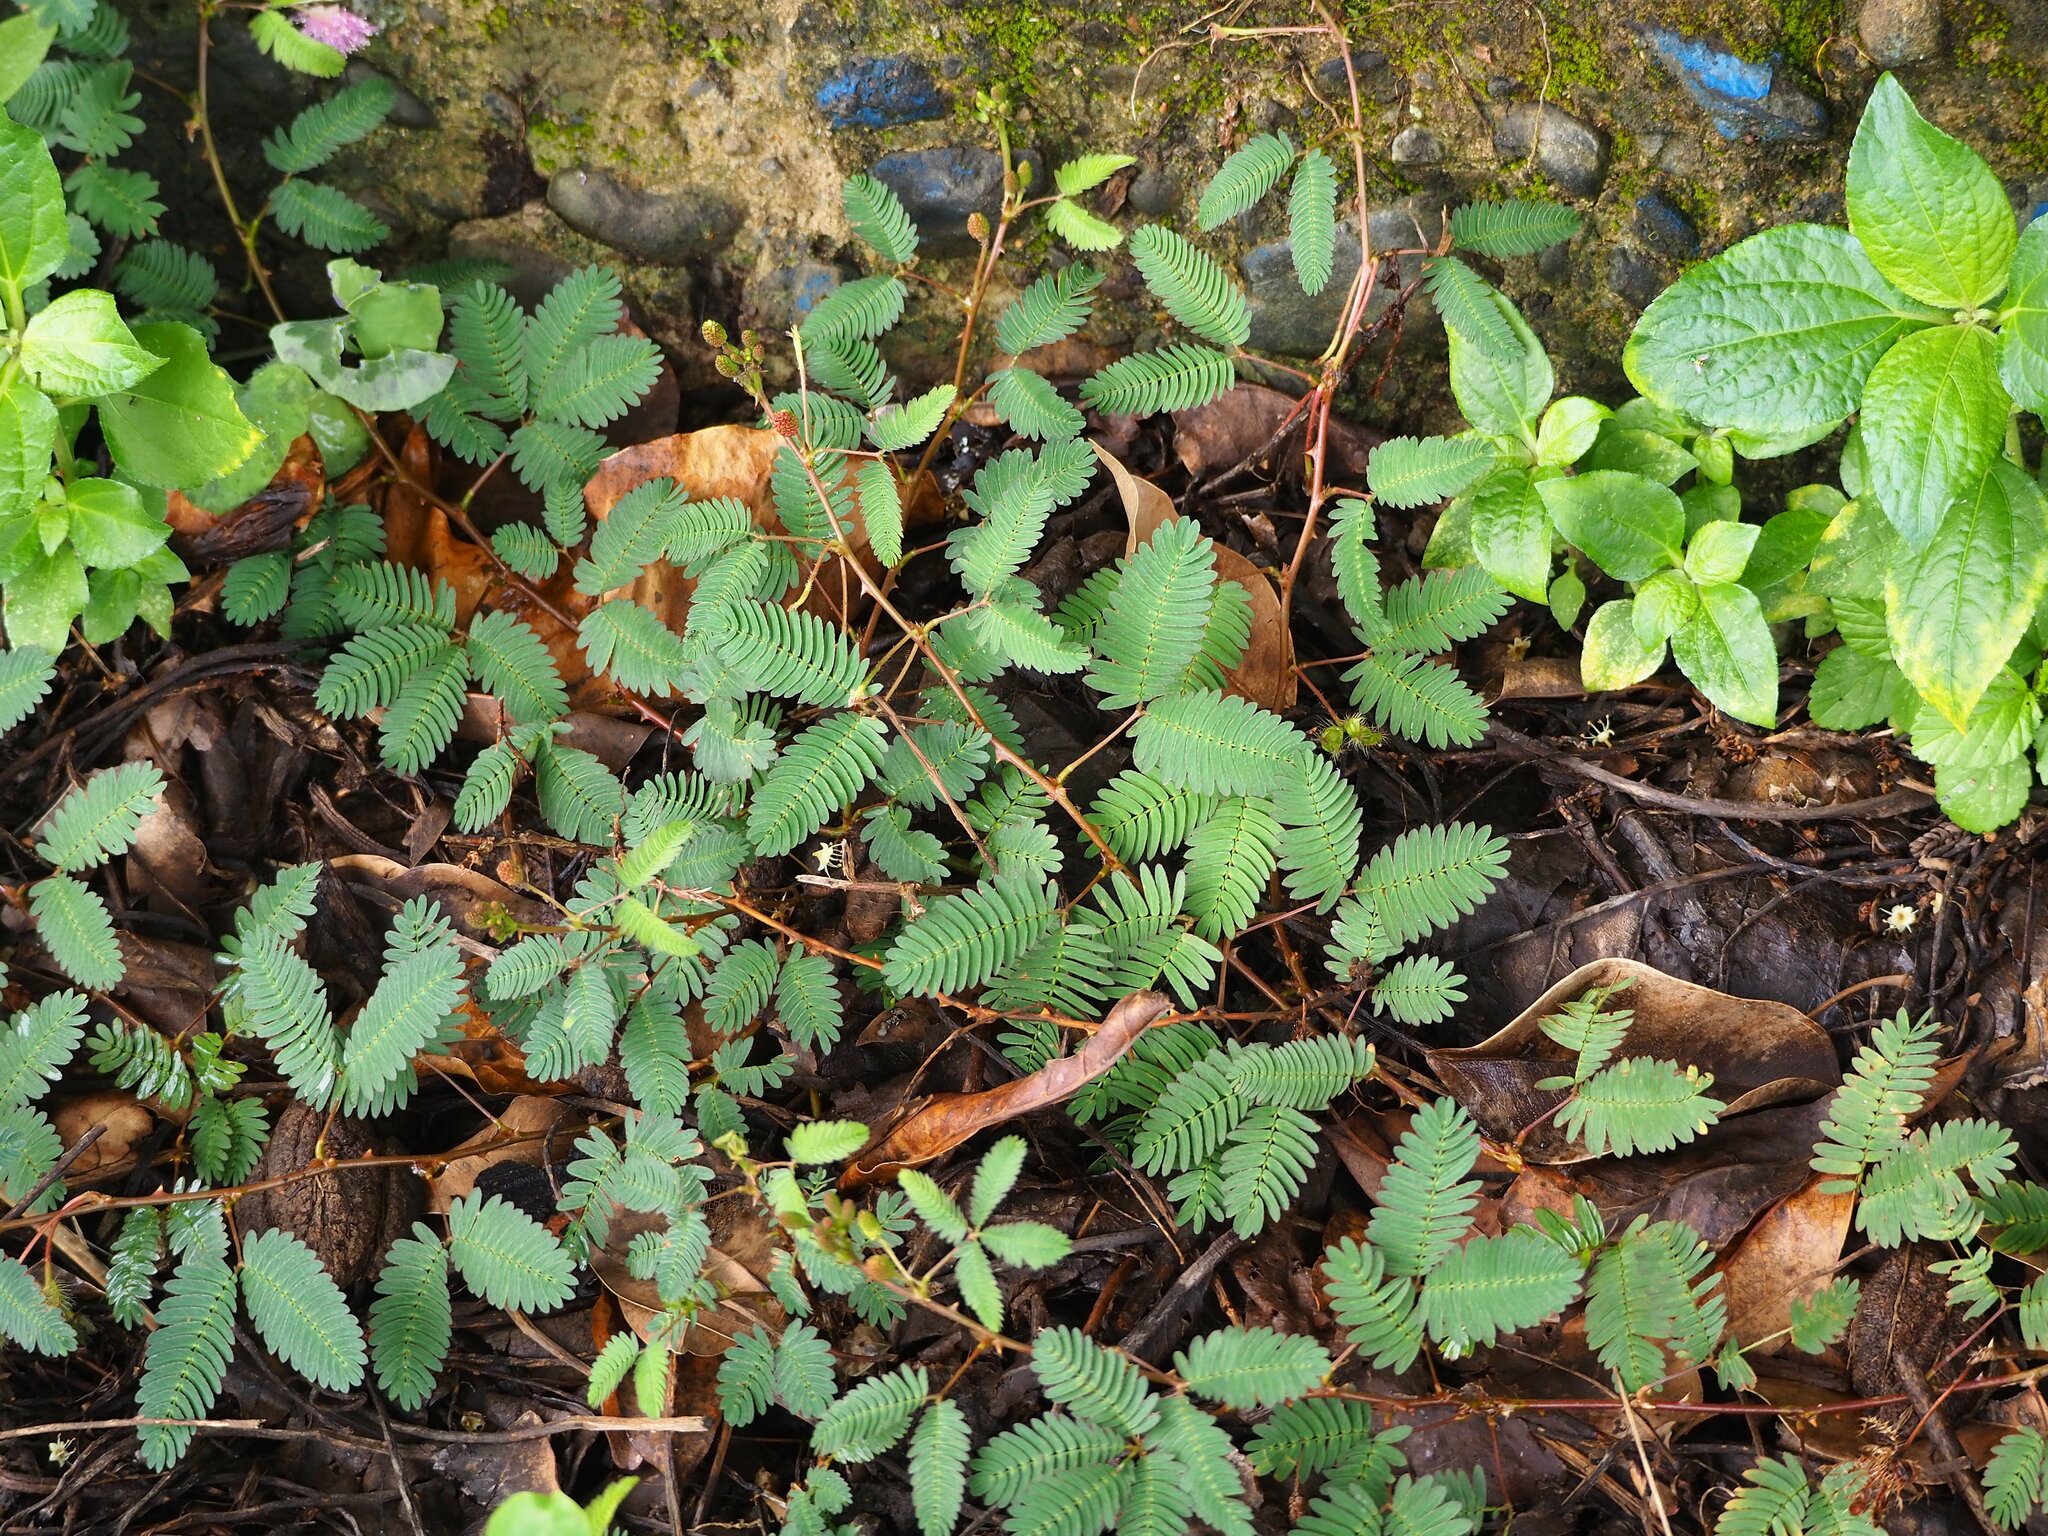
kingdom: Plantae
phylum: Tracheophyta
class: Magnoliopsida
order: Fabales
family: Fabaceae
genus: Mimosa
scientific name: Mimosa pudica
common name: Sensitive plant
